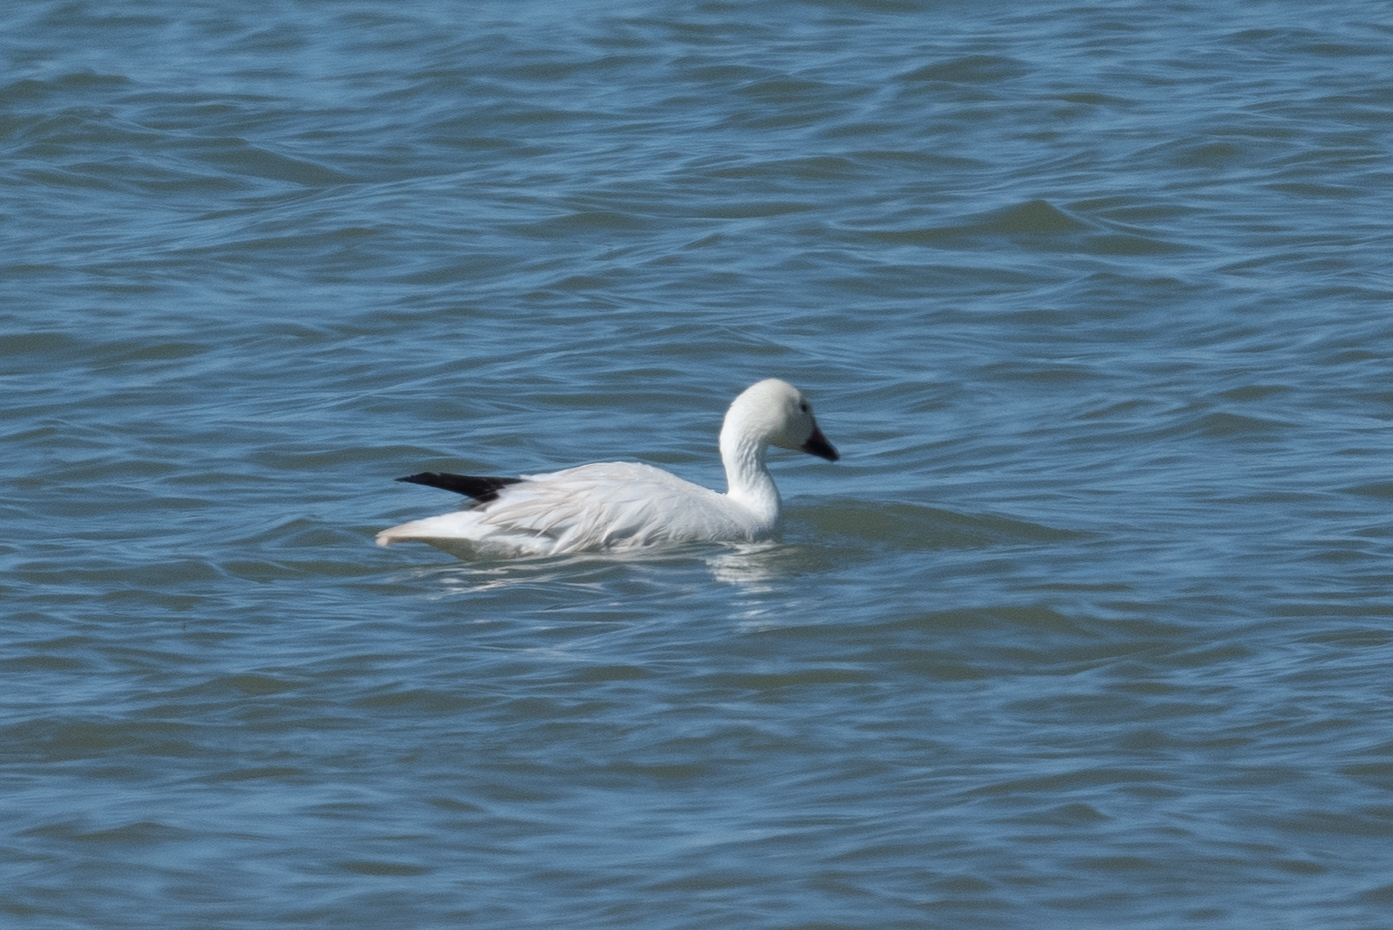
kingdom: Animalia
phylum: Chordata
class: Aves
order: Anseriformes
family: Anatidae
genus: Anser
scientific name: Anser caerulescens
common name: Snow goose
